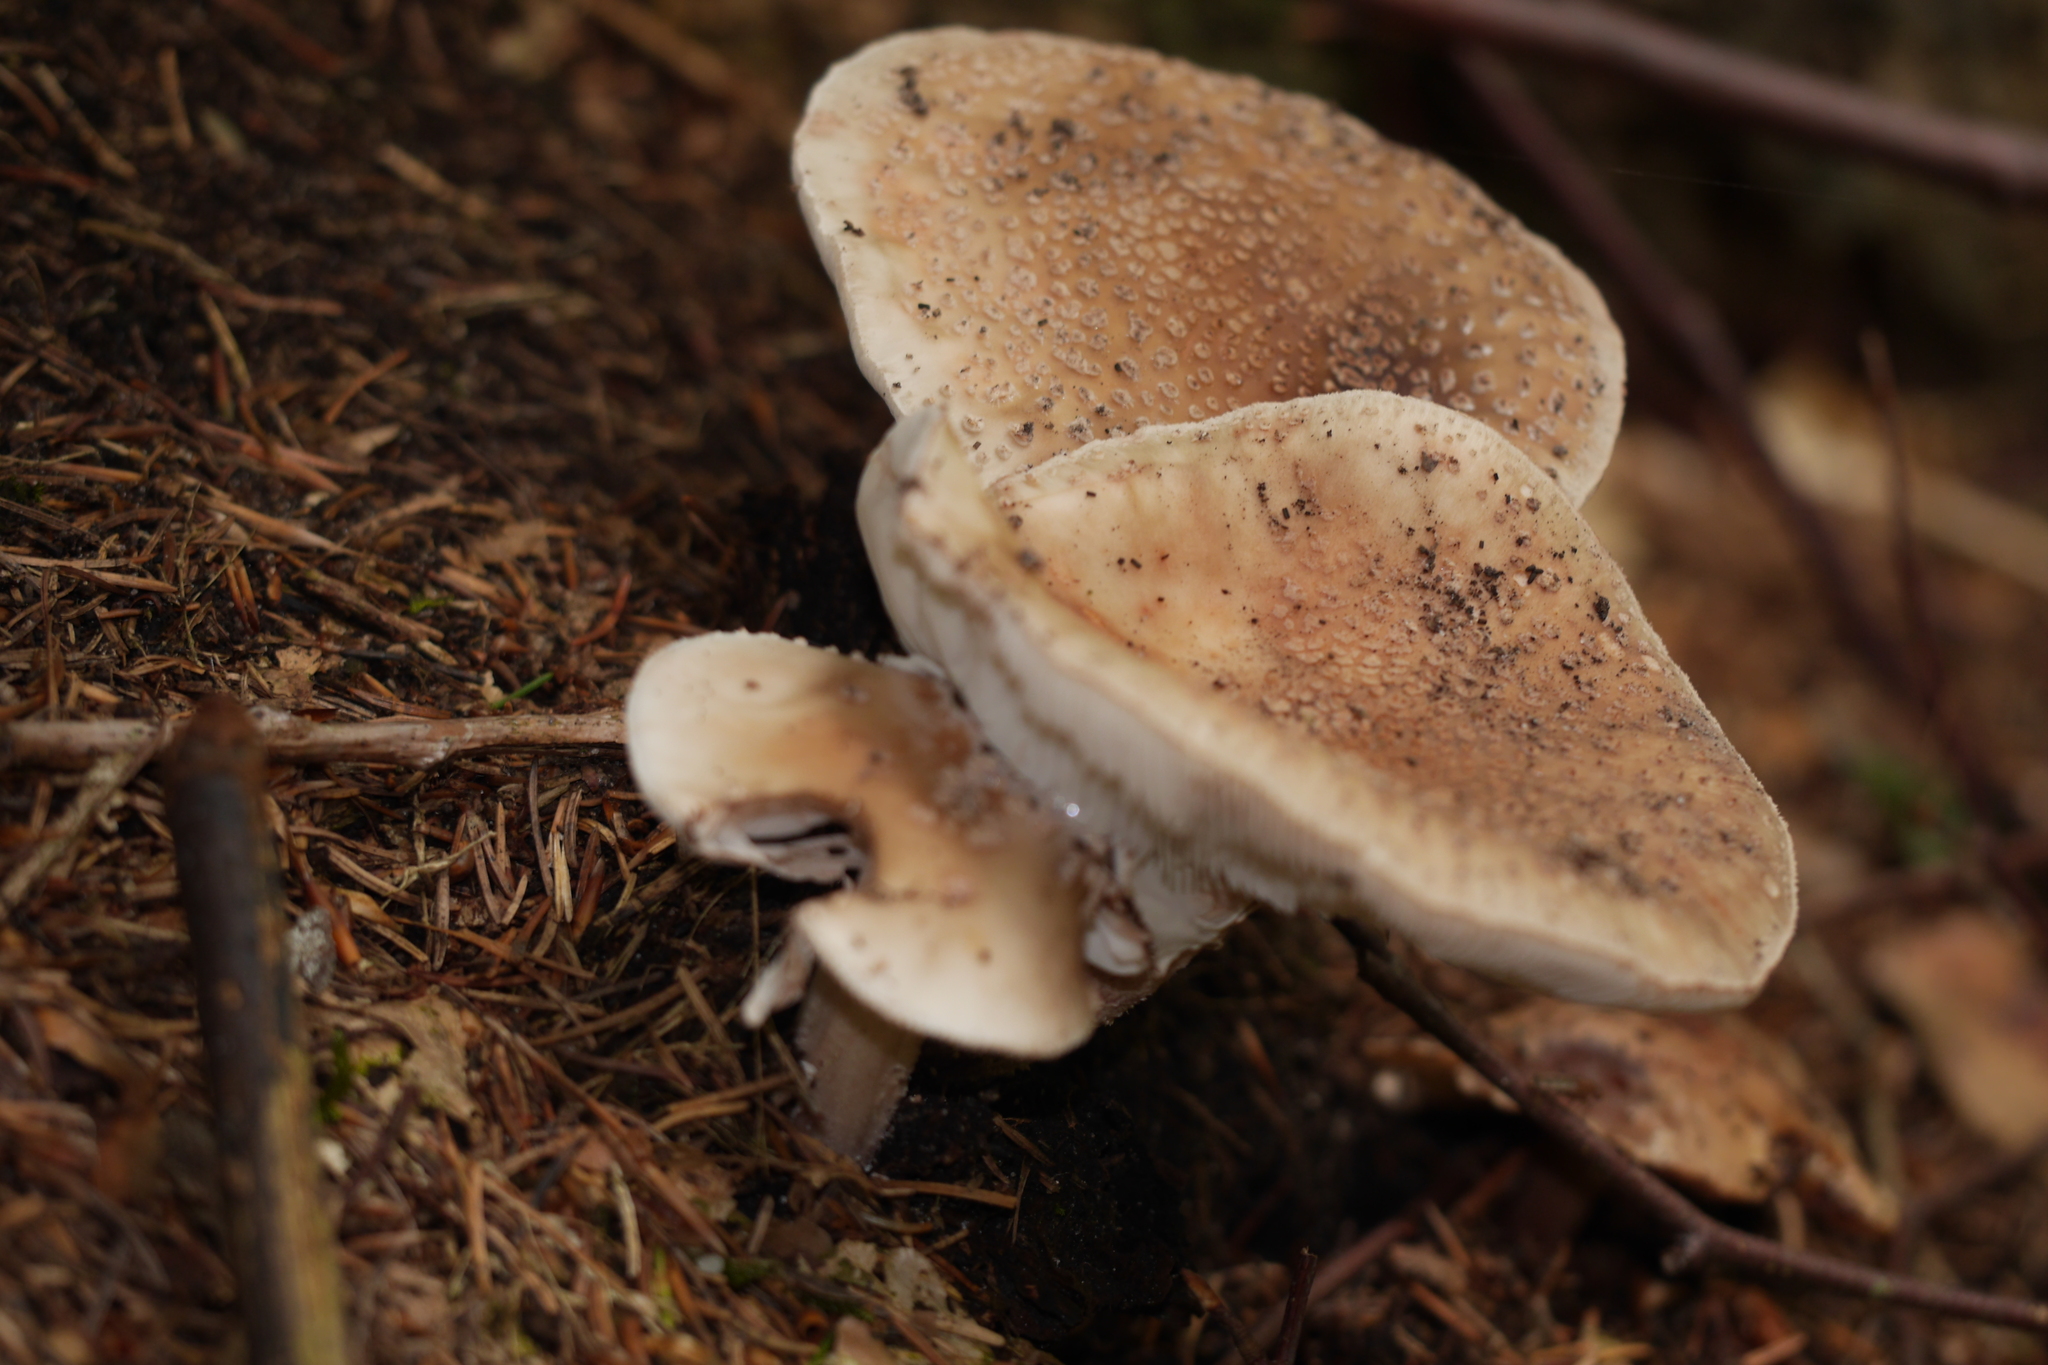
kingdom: Fungi
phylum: Basidiomycota
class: Agaricomycetes
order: Agaricales
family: Amanitaceae
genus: Amanita
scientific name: Amanita rubescens
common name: Blusher
